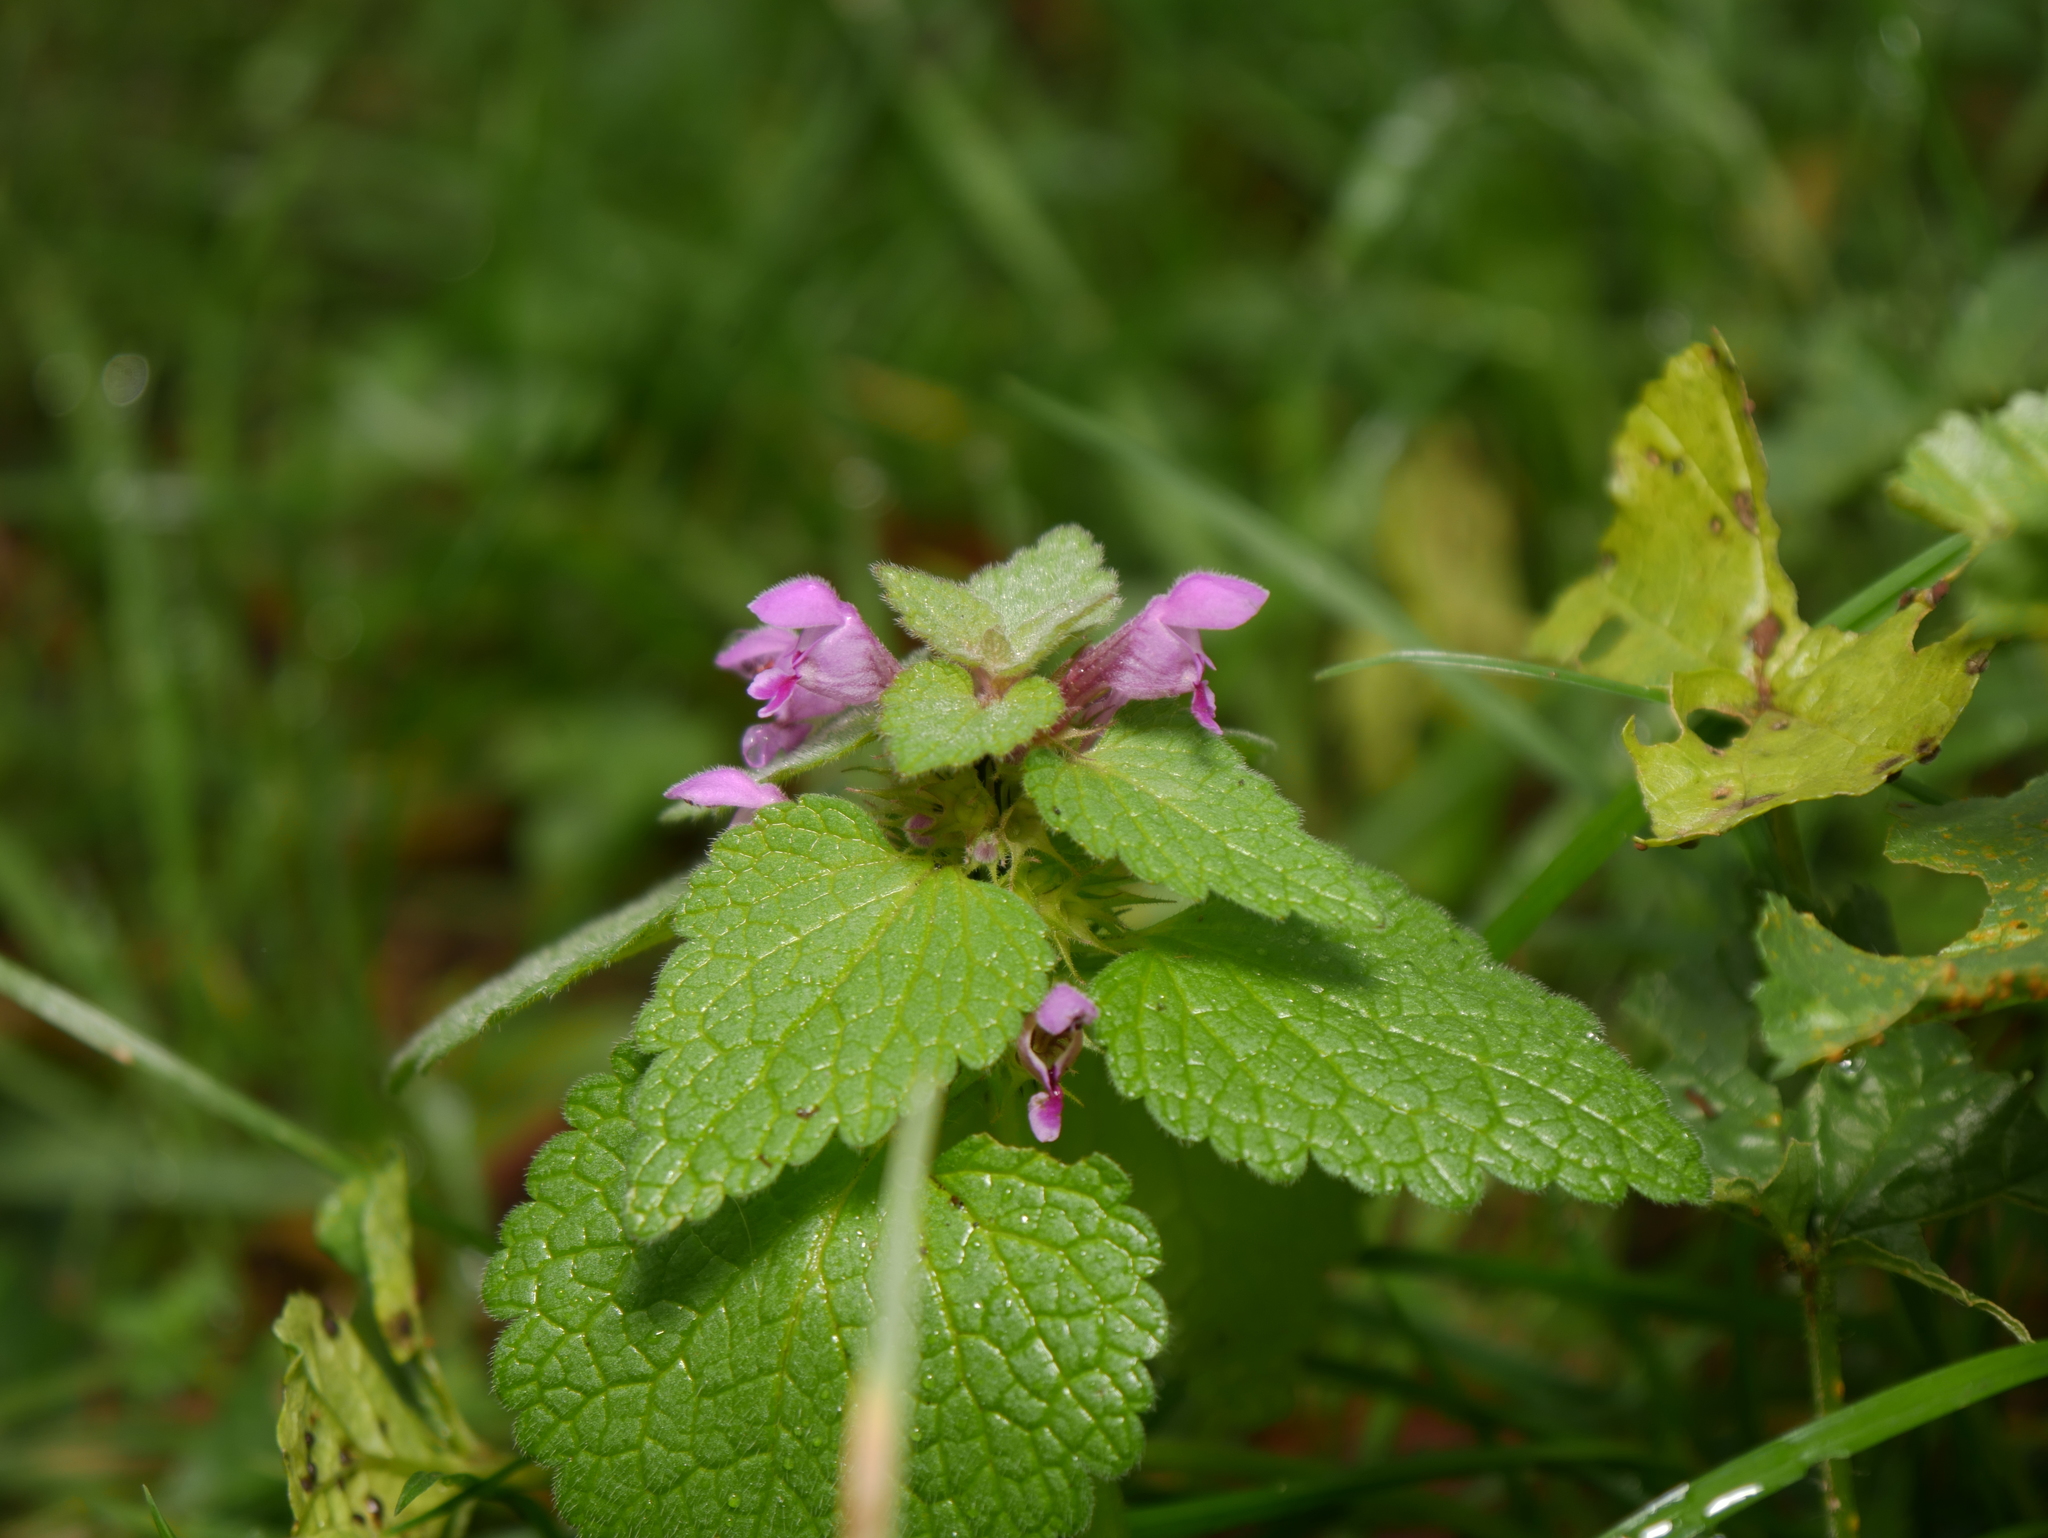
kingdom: Plantae
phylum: Tracheophyta
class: Magnoliopsida
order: Lamiales
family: Lamiaceae
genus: Lamium
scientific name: Lamium purpureum
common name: Red dead-nettle
